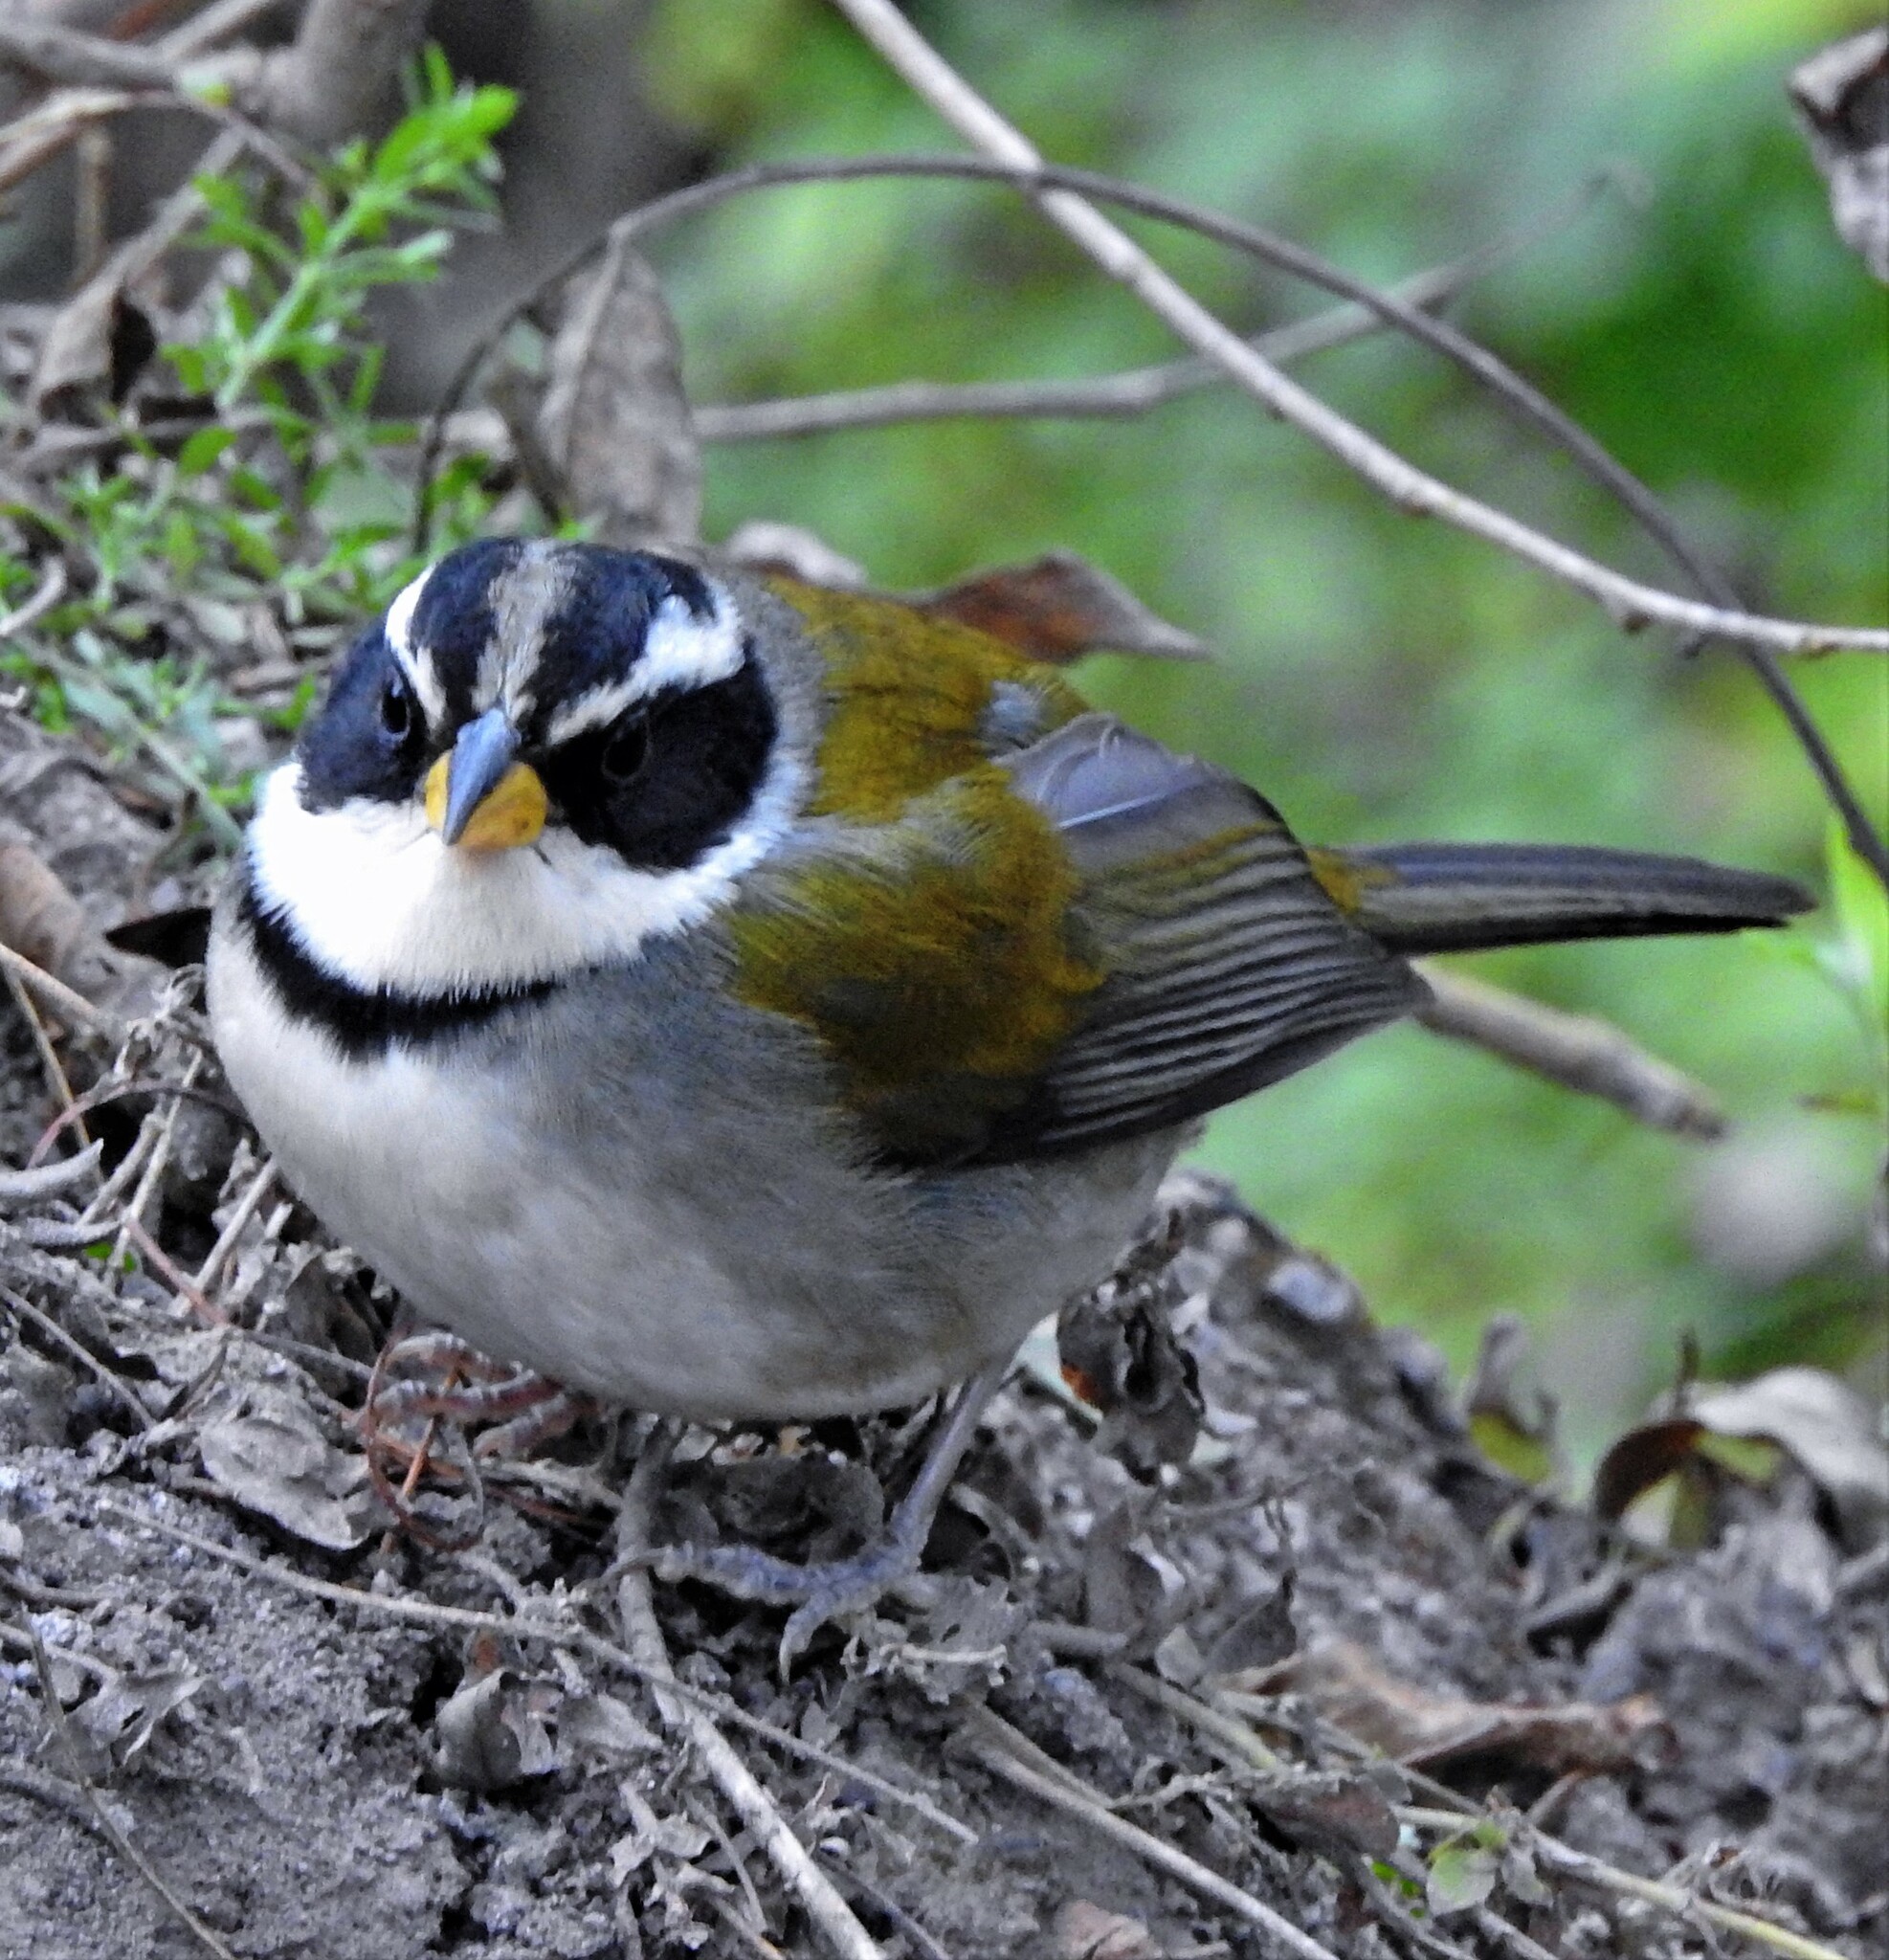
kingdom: Animalia
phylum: Chordata
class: Aves
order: Passeriformes
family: Passerellidae
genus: Arremon
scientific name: Arremon dorbignii
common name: Moss-backed sparrow
